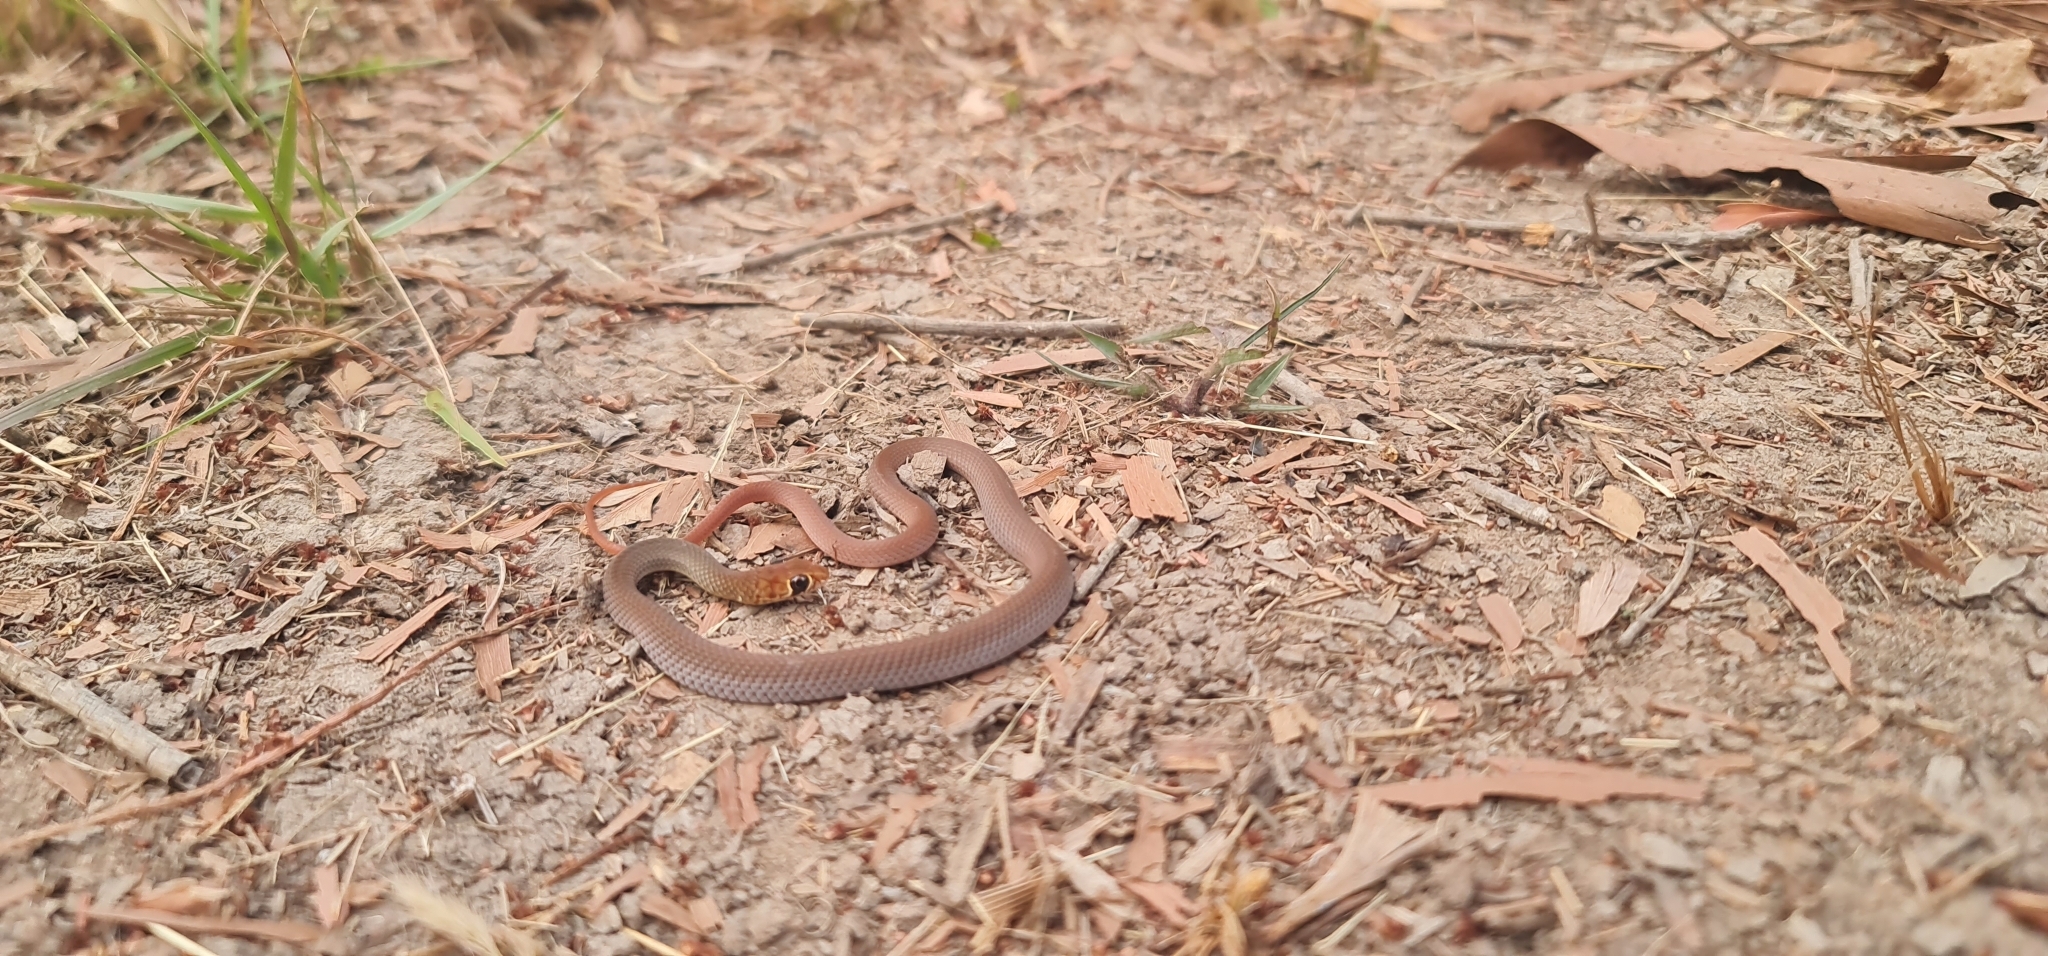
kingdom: Animalia
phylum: Chordata
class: Squamata
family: Elapidae
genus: Demansia
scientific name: Demansia vestigiata
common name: Black whip snake
